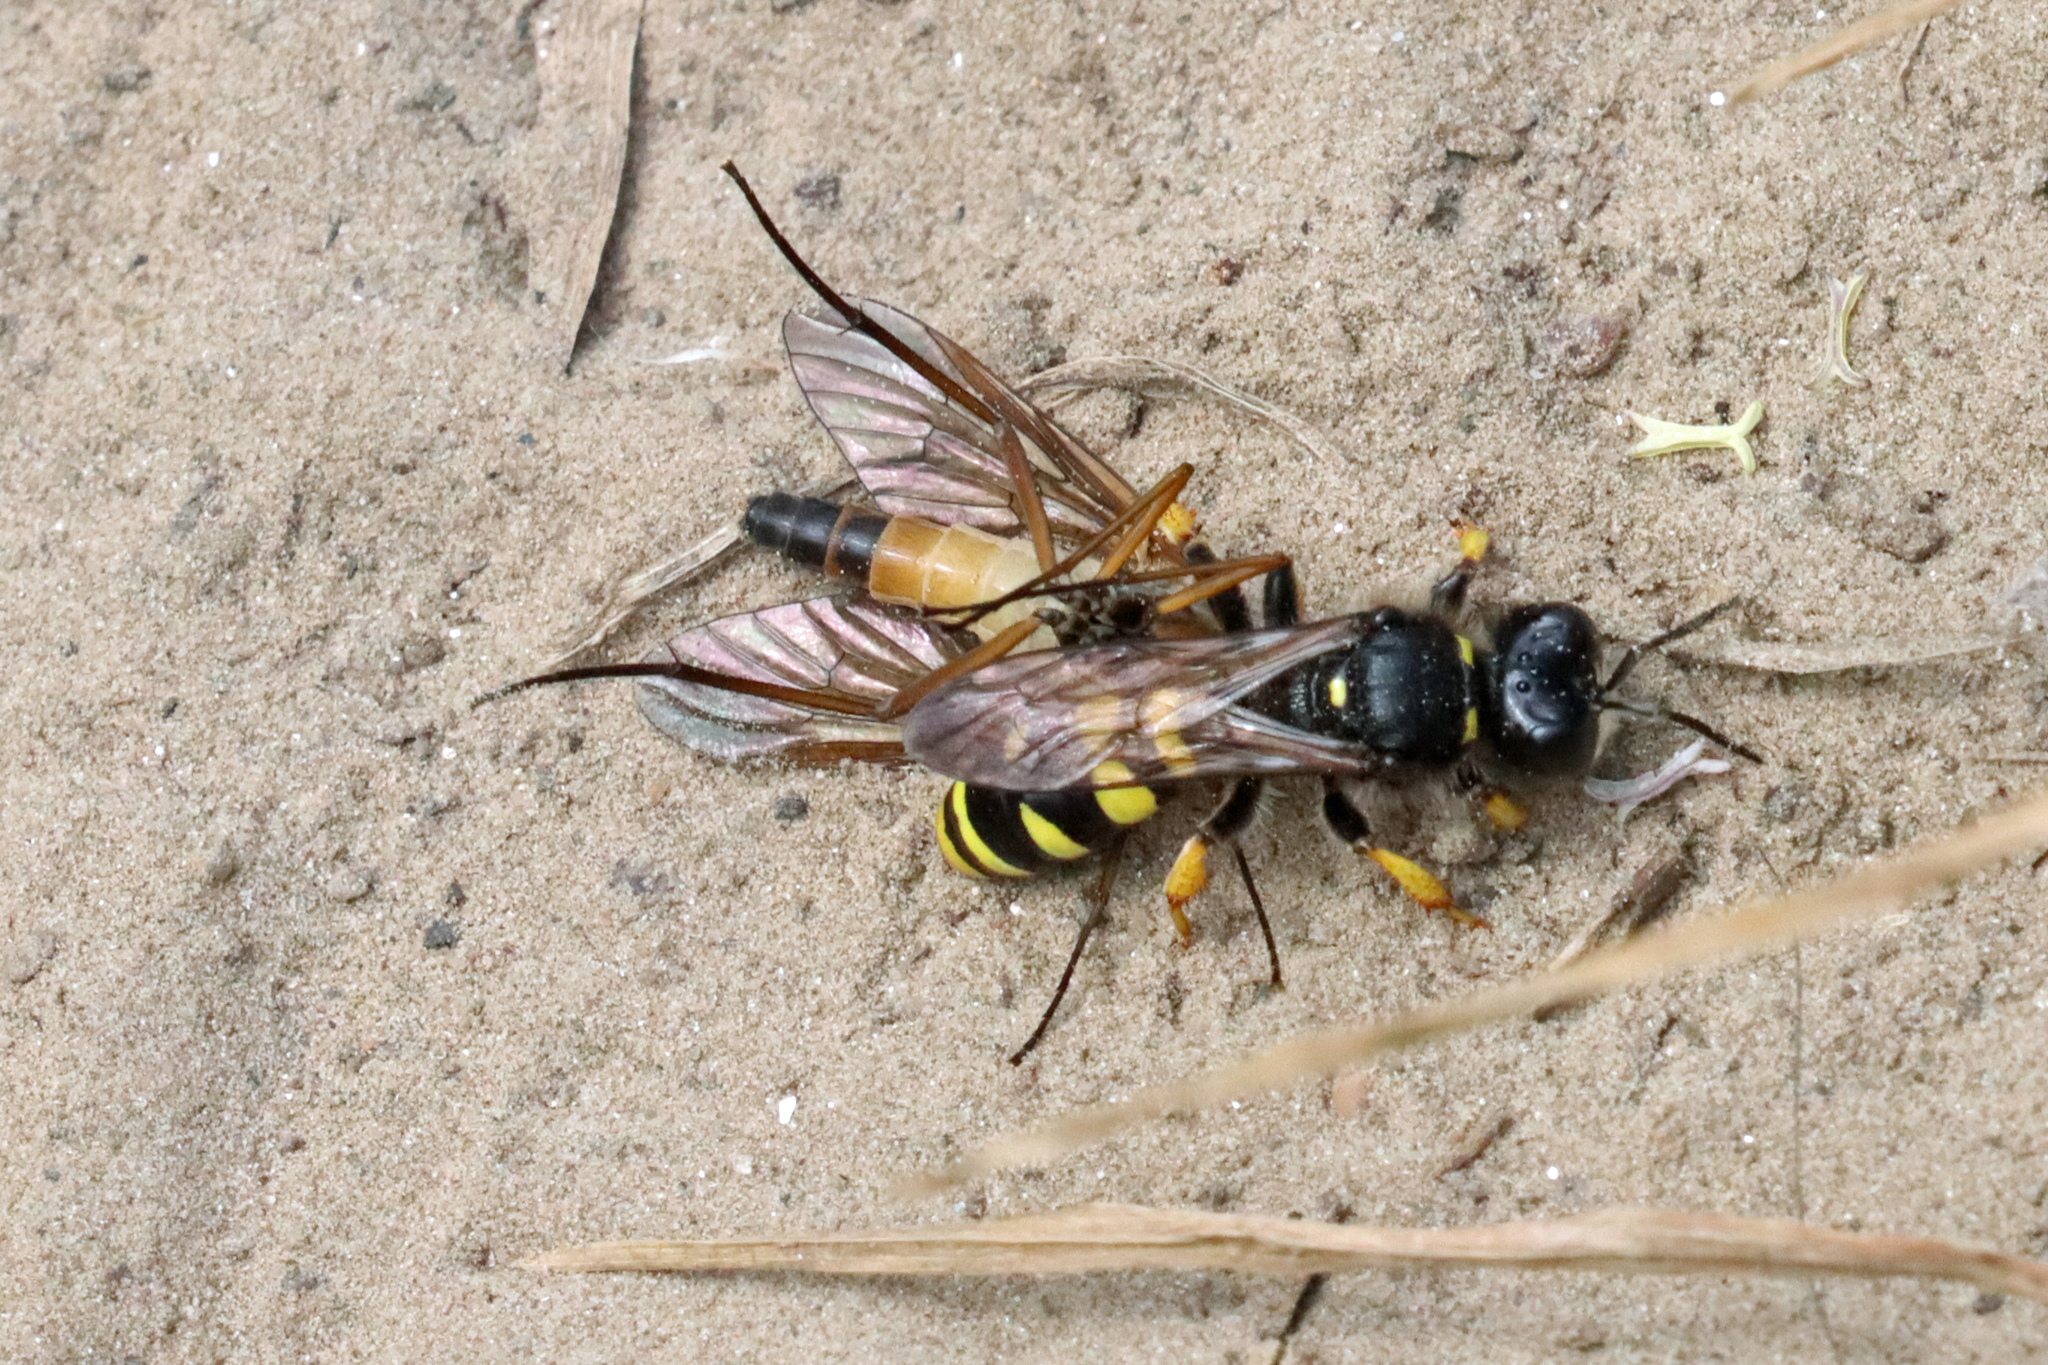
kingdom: Animalia
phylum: Arthropoda
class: Insecta
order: Hymenoptera
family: Crabronidae
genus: Crabro
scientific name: Crabro cribrarius
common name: Slender bodied digger wasp
